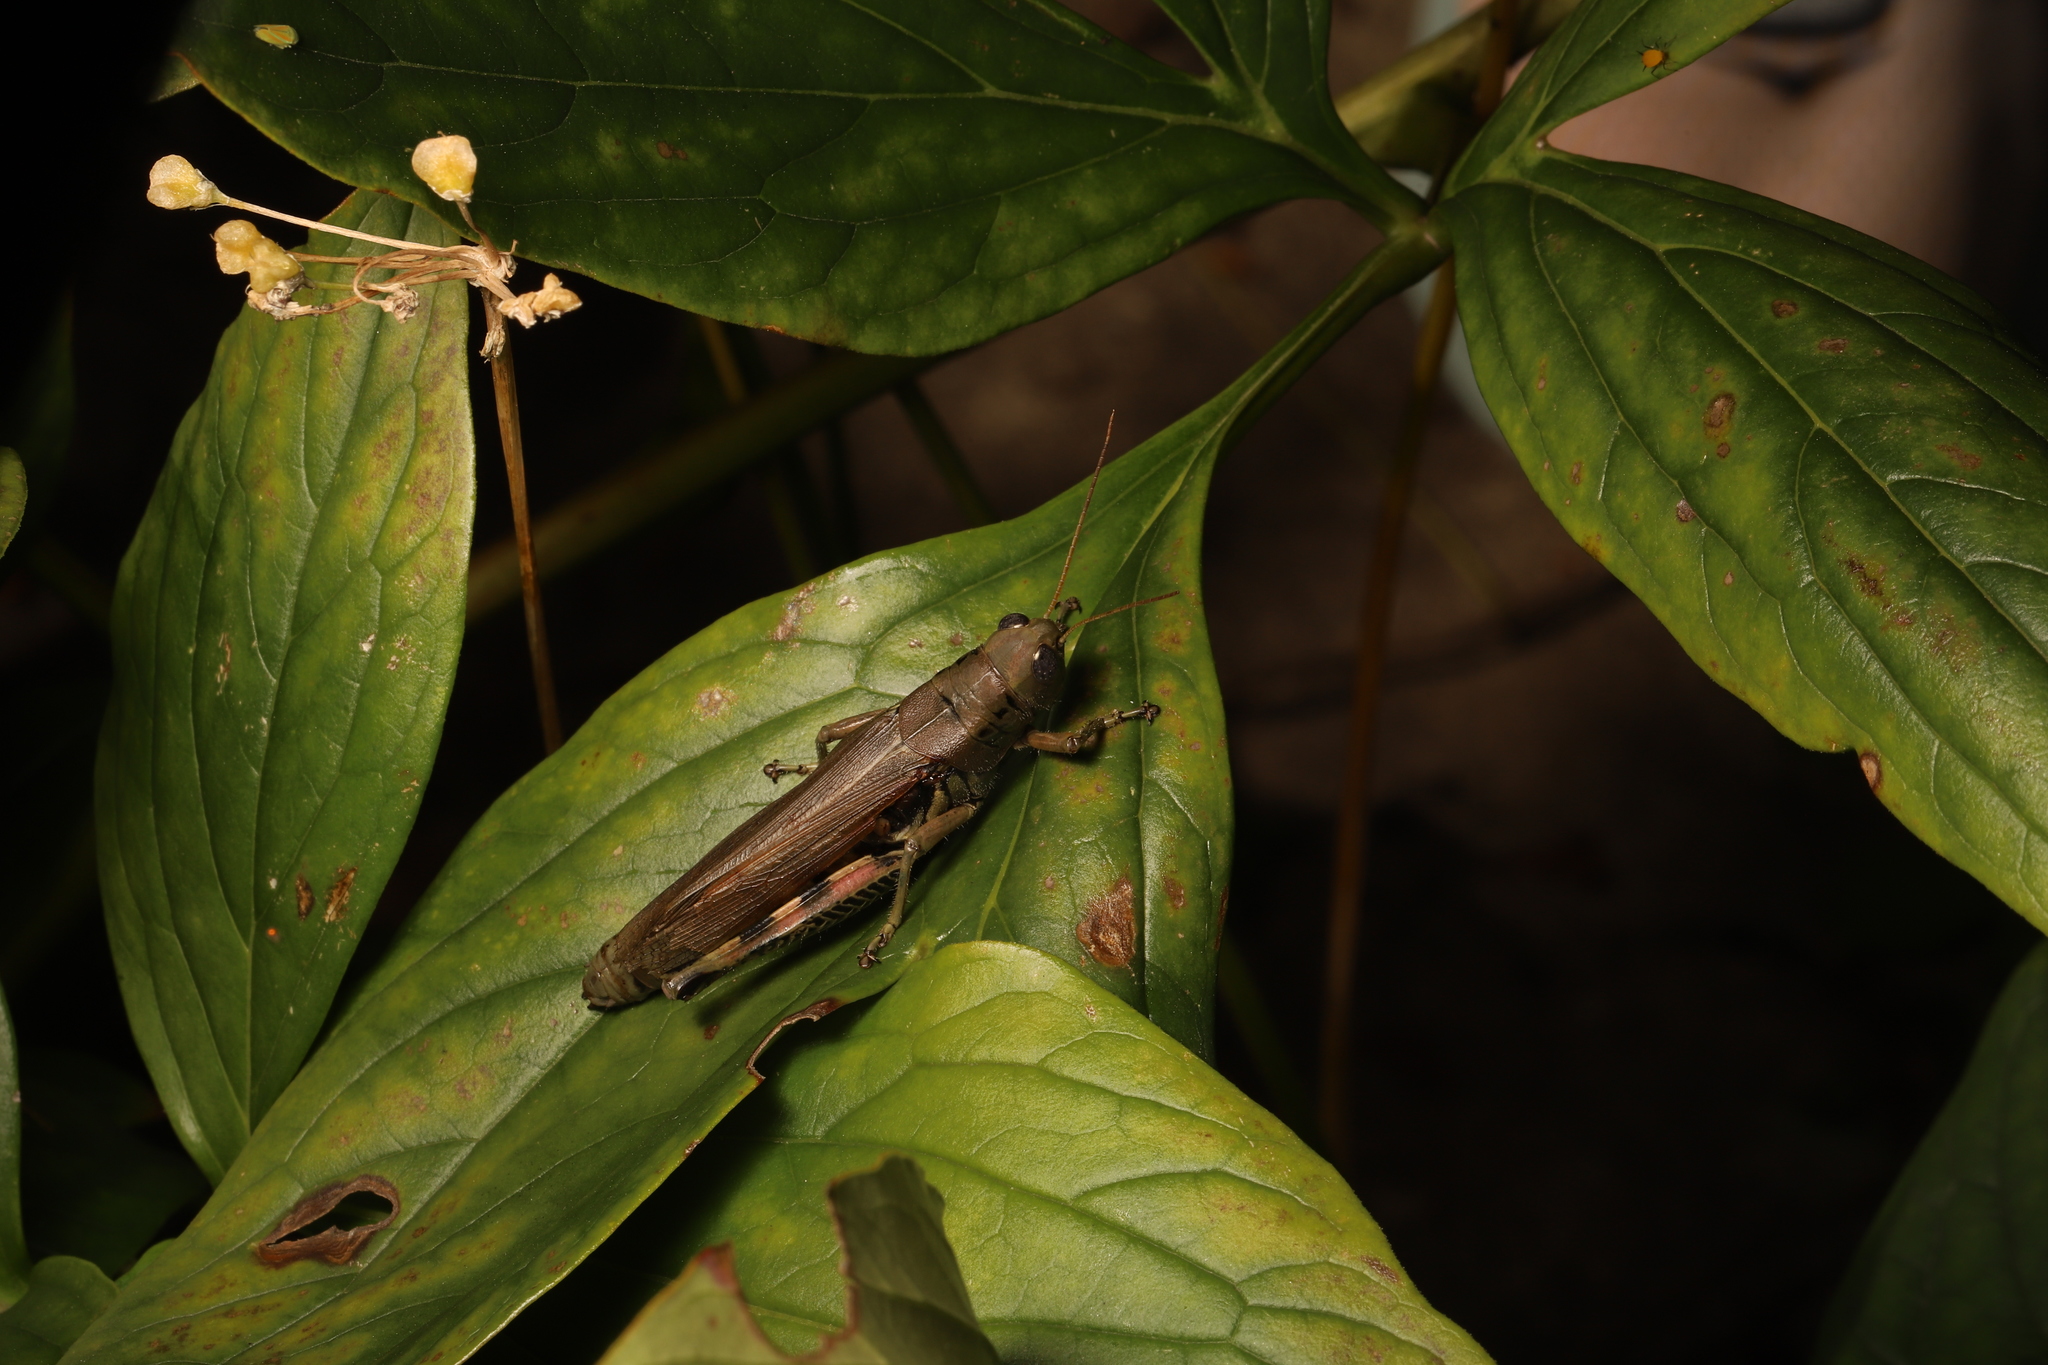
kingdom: Animalia
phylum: Arthropoda
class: Insecta
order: Orthoptera
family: Acrididae
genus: Melanoplus
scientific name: Melanoplus differentialis
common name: Differential grasshopper
